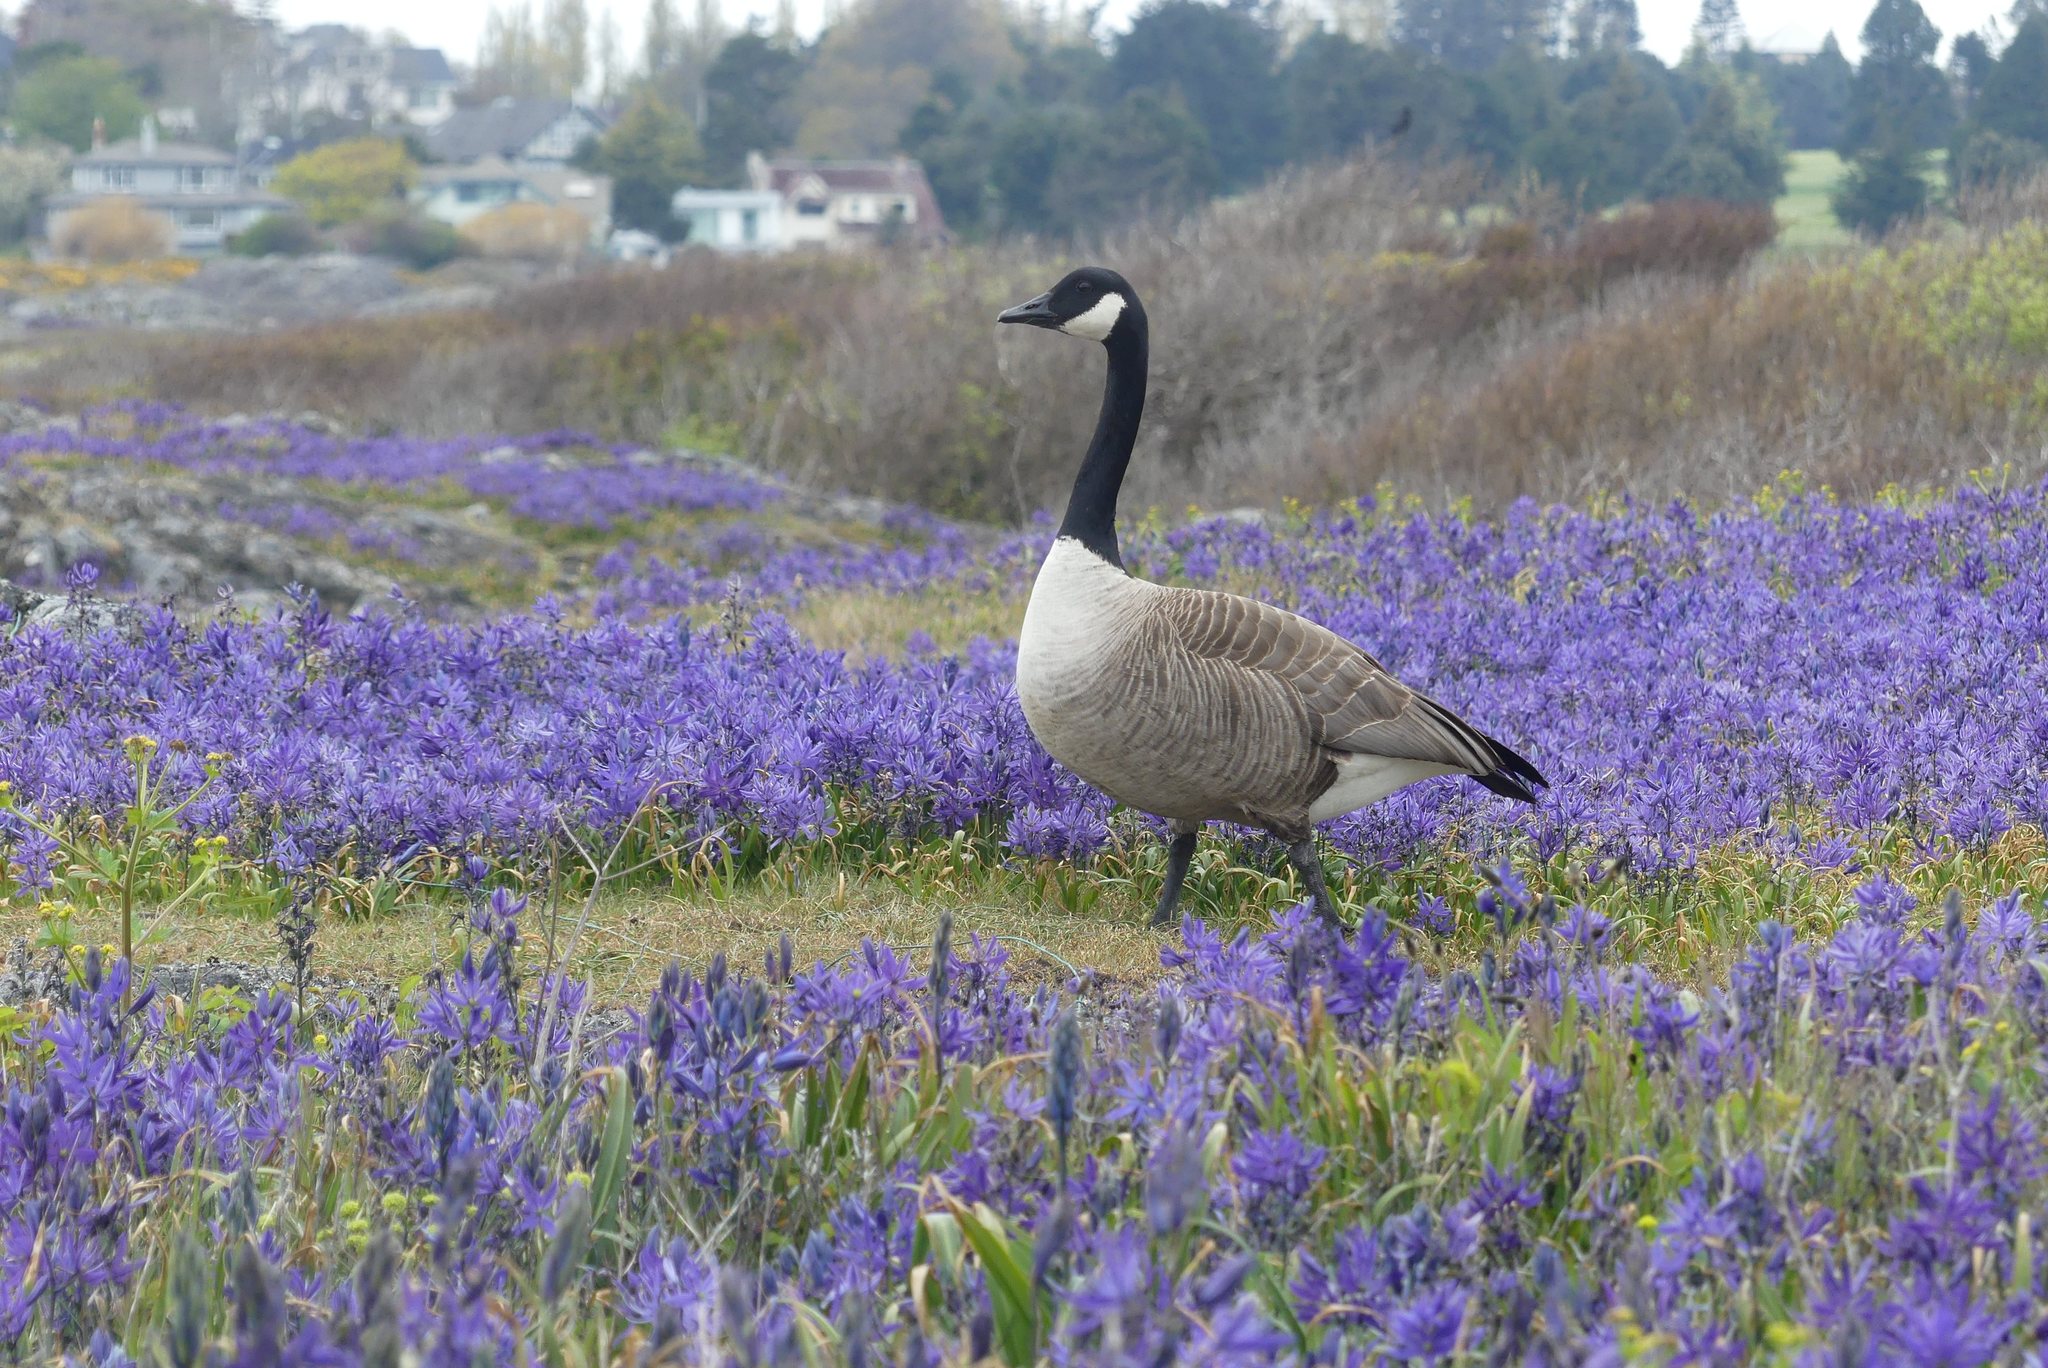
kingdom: Animalia
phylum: Chordata
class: Aves
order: Anseriformes
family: Anatidae
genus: Branta
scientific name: Branta canadensis
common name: Canada goose
